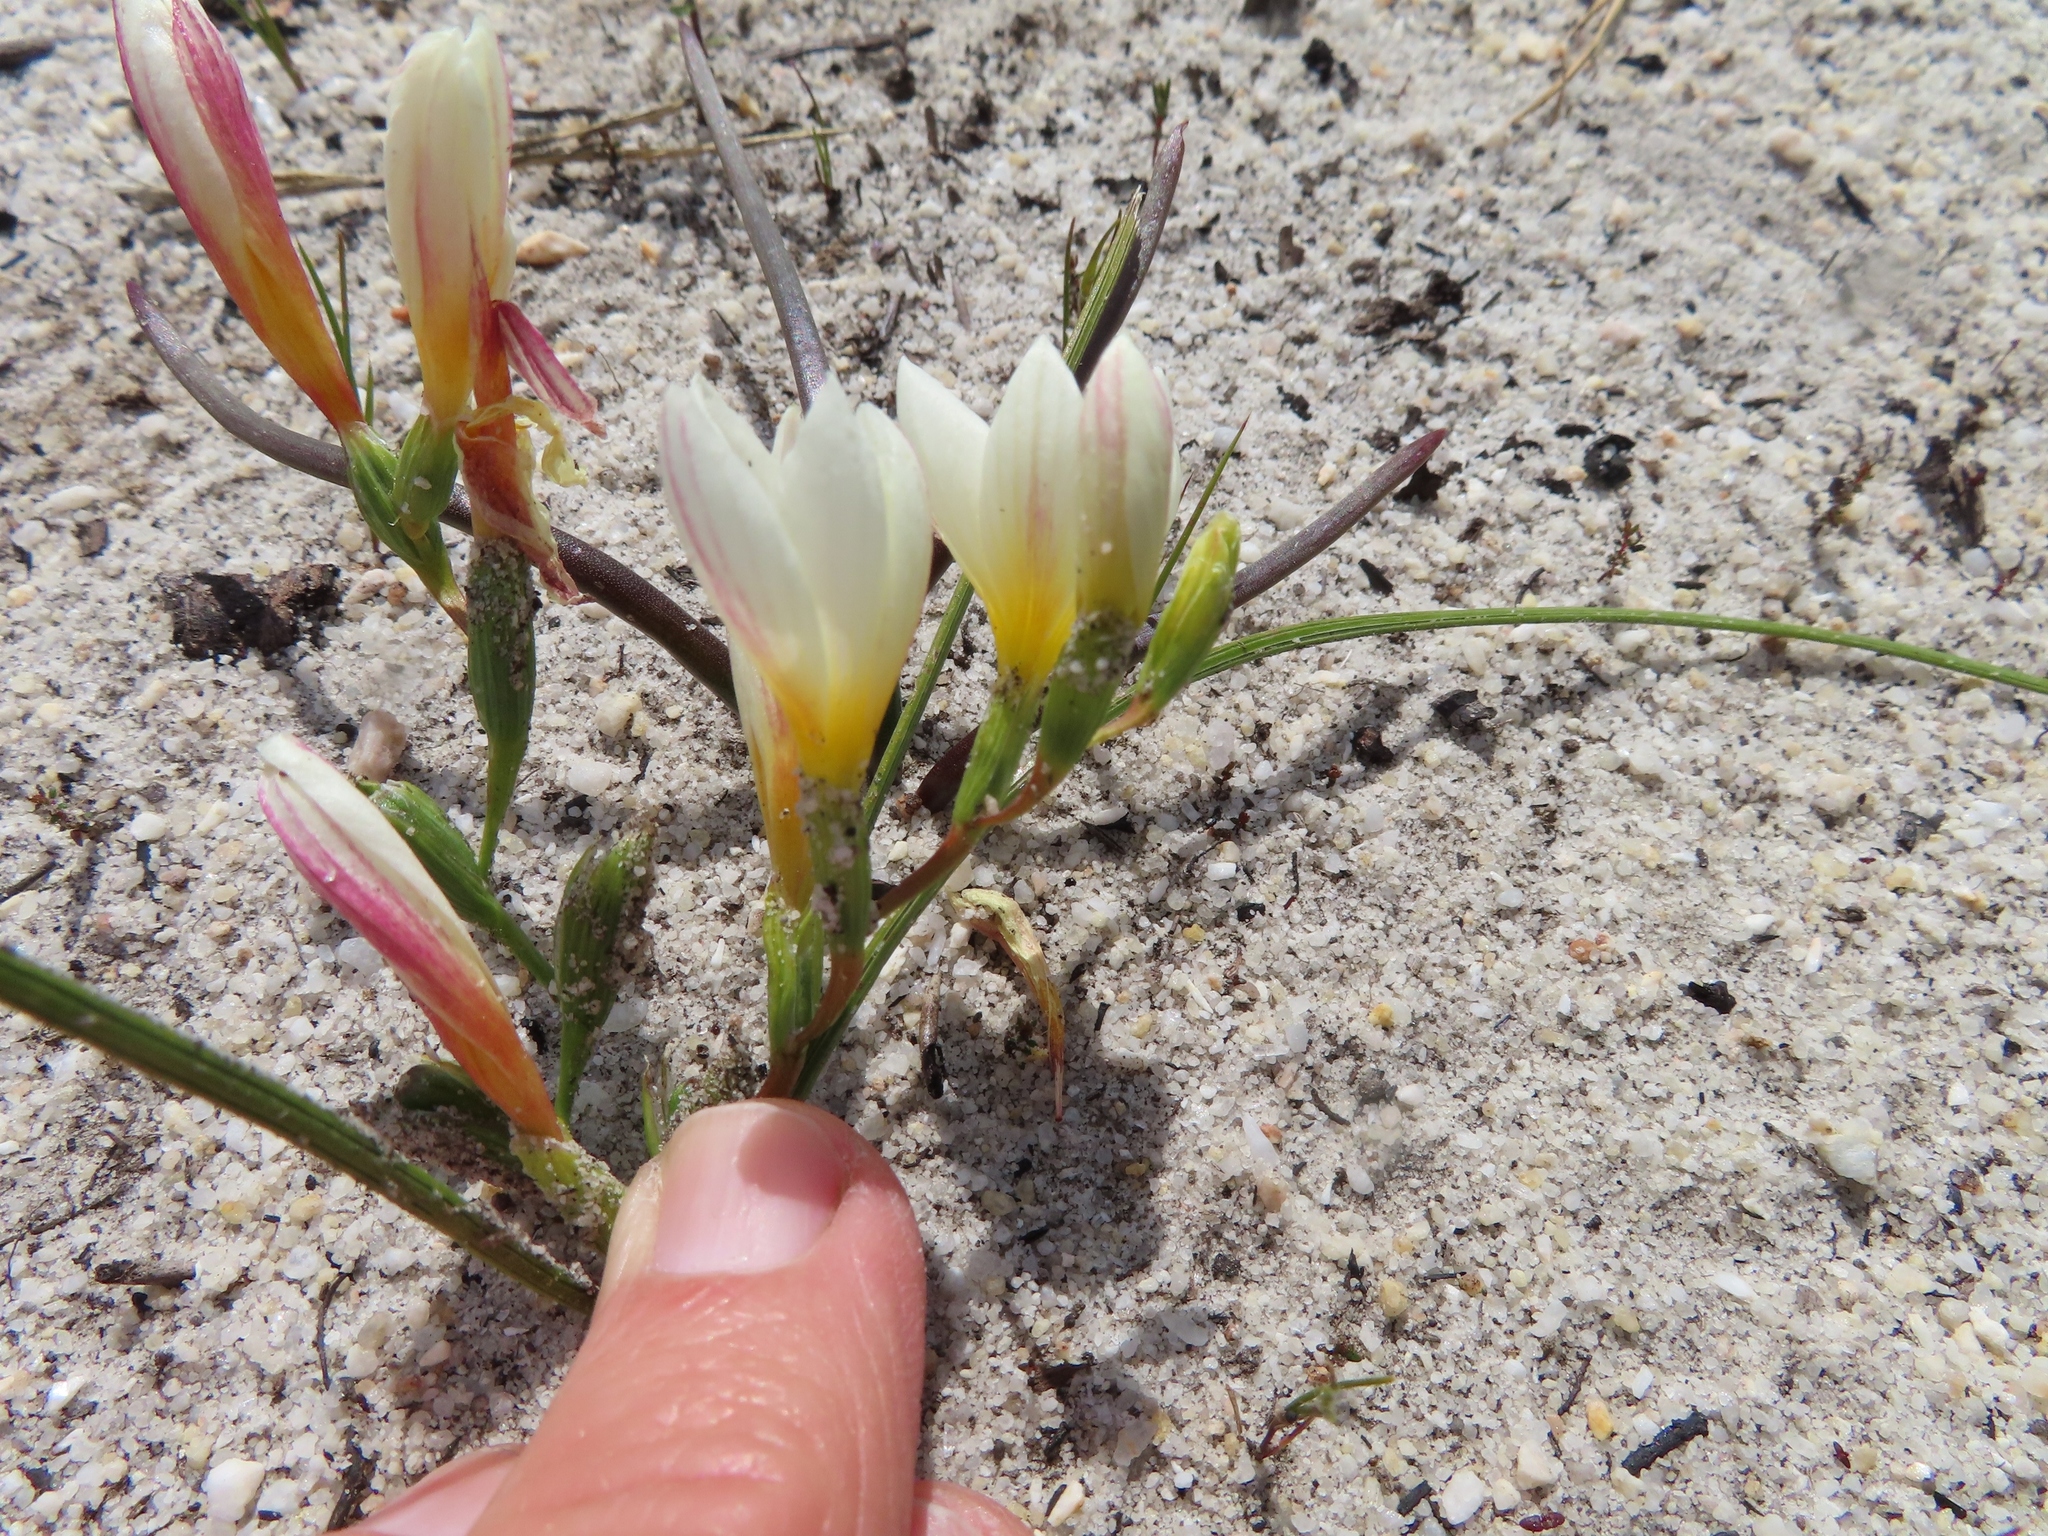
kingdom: Plantae
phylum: Tracheophyta
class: Liliopsida
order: Asparagales
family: Iridaceae
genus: Geissorhiza
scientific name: Geissorhiza hispidula
